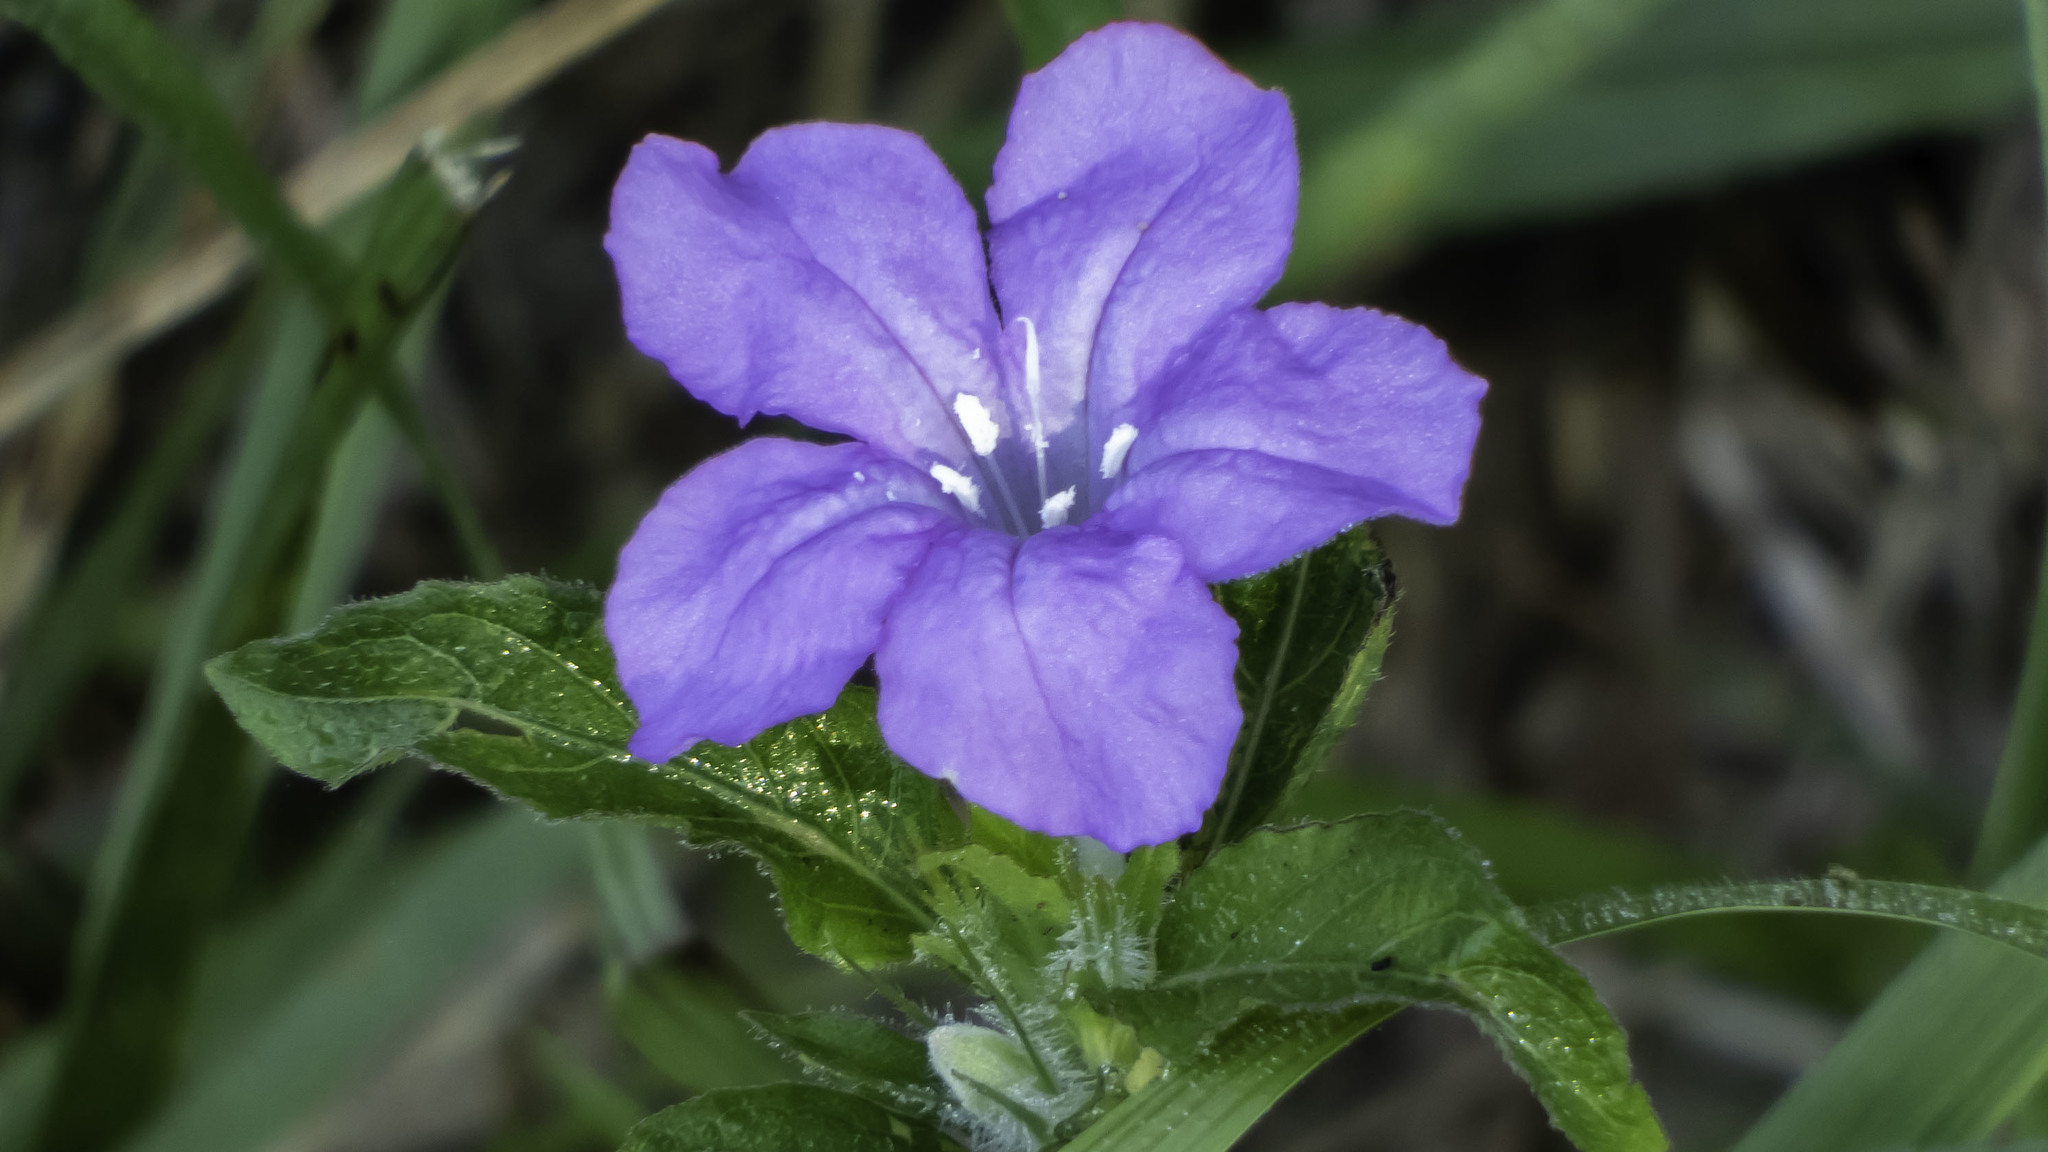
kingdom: Plantae
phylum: Tracheophyta
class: Magnoliopsida
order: Lamiales
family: Acanthaceae
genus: Ruellia
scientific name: Ruellia caroliniensis
